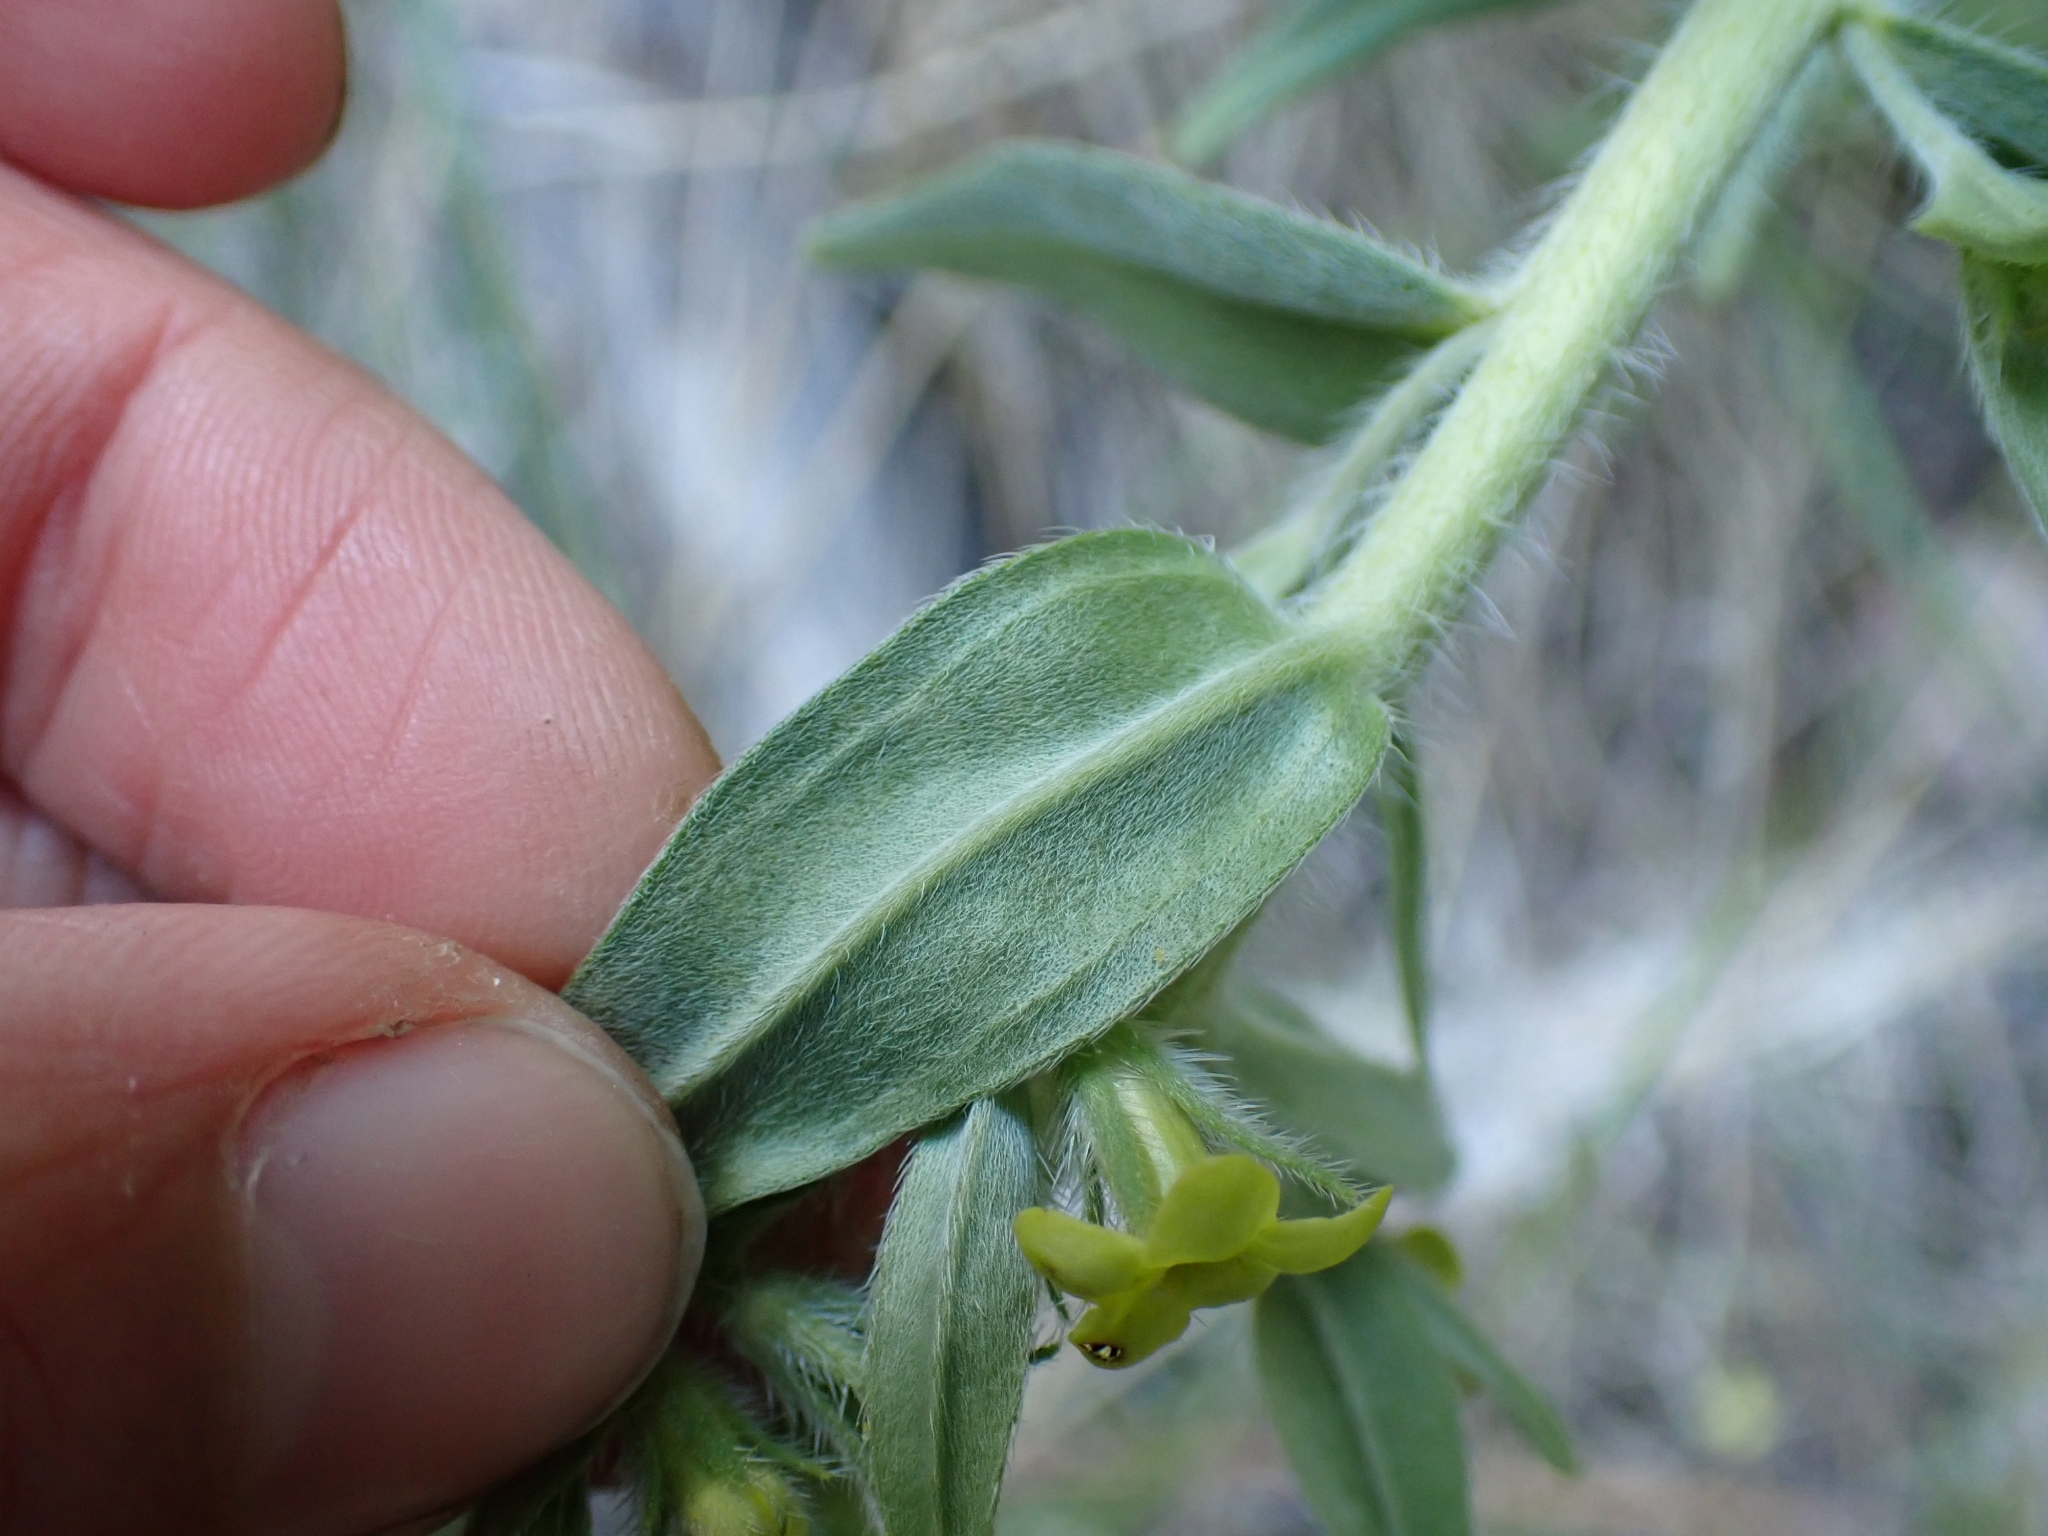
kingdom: Plantae
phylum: Tracheophyta
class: Magnoliopsida
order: Boraginales
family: Boraginaceae
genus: Lithospermum
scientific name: Lithospermum ruderale
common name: Western gromwell
